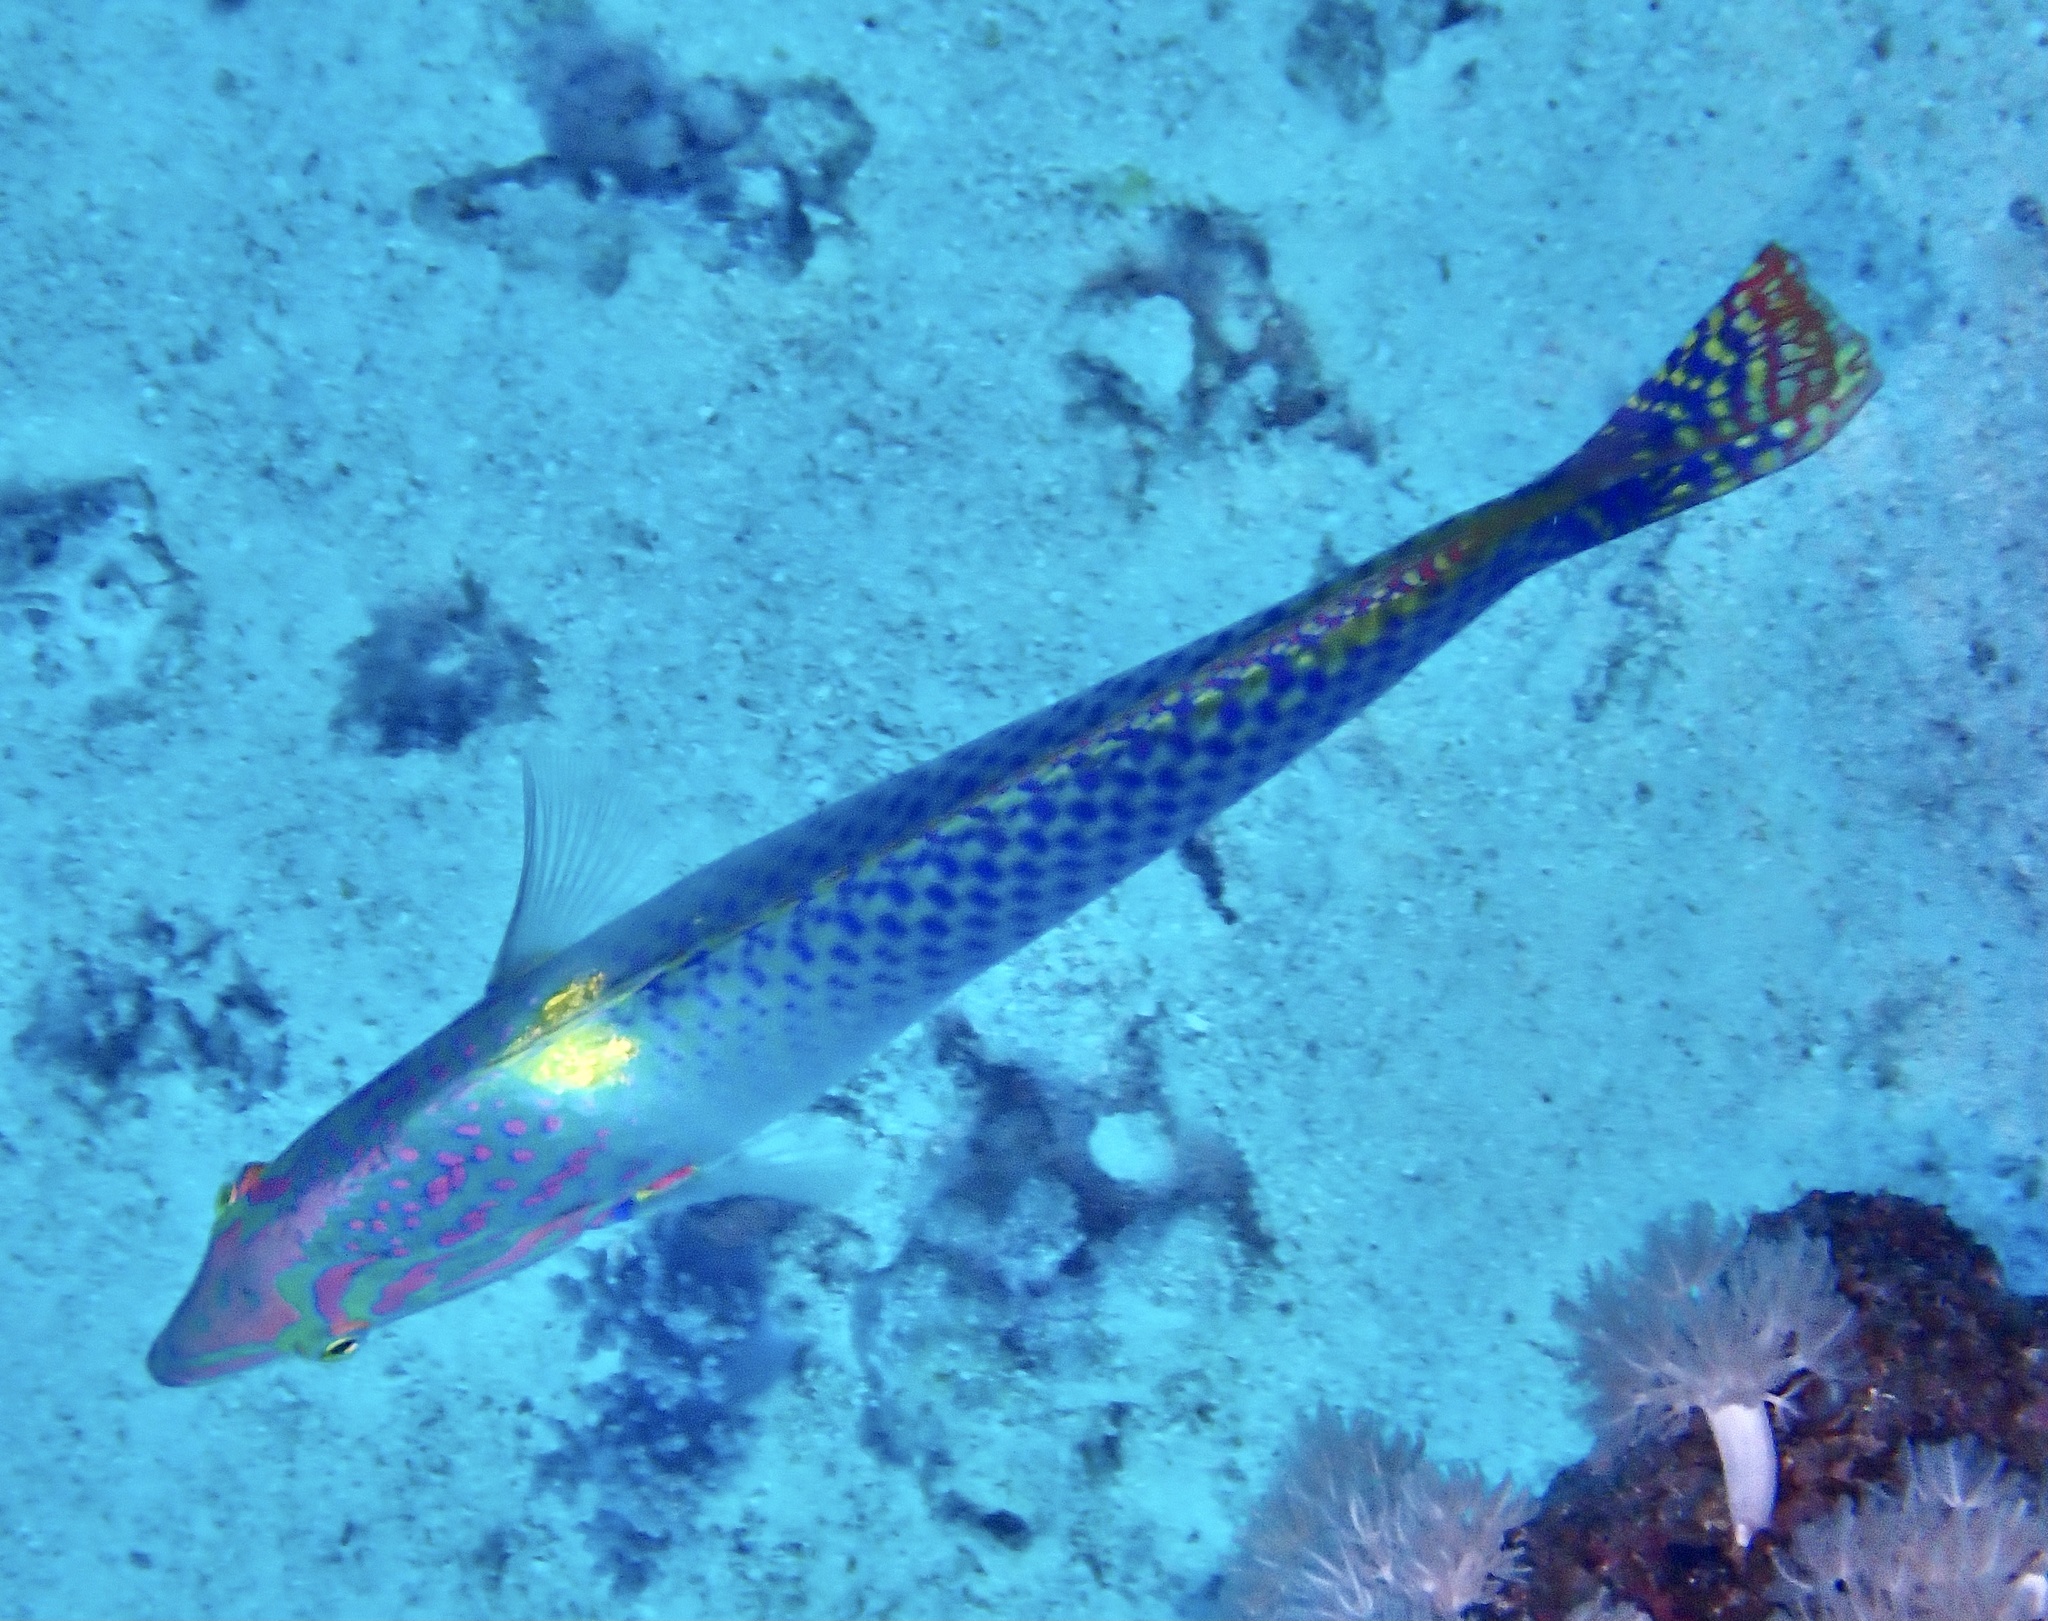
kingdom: Animalia
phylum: Chordata
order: Perciformes
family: Labridae
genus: Halichoeres
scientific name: Halichoeres hortulanus
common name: Checkerboard wrasse
